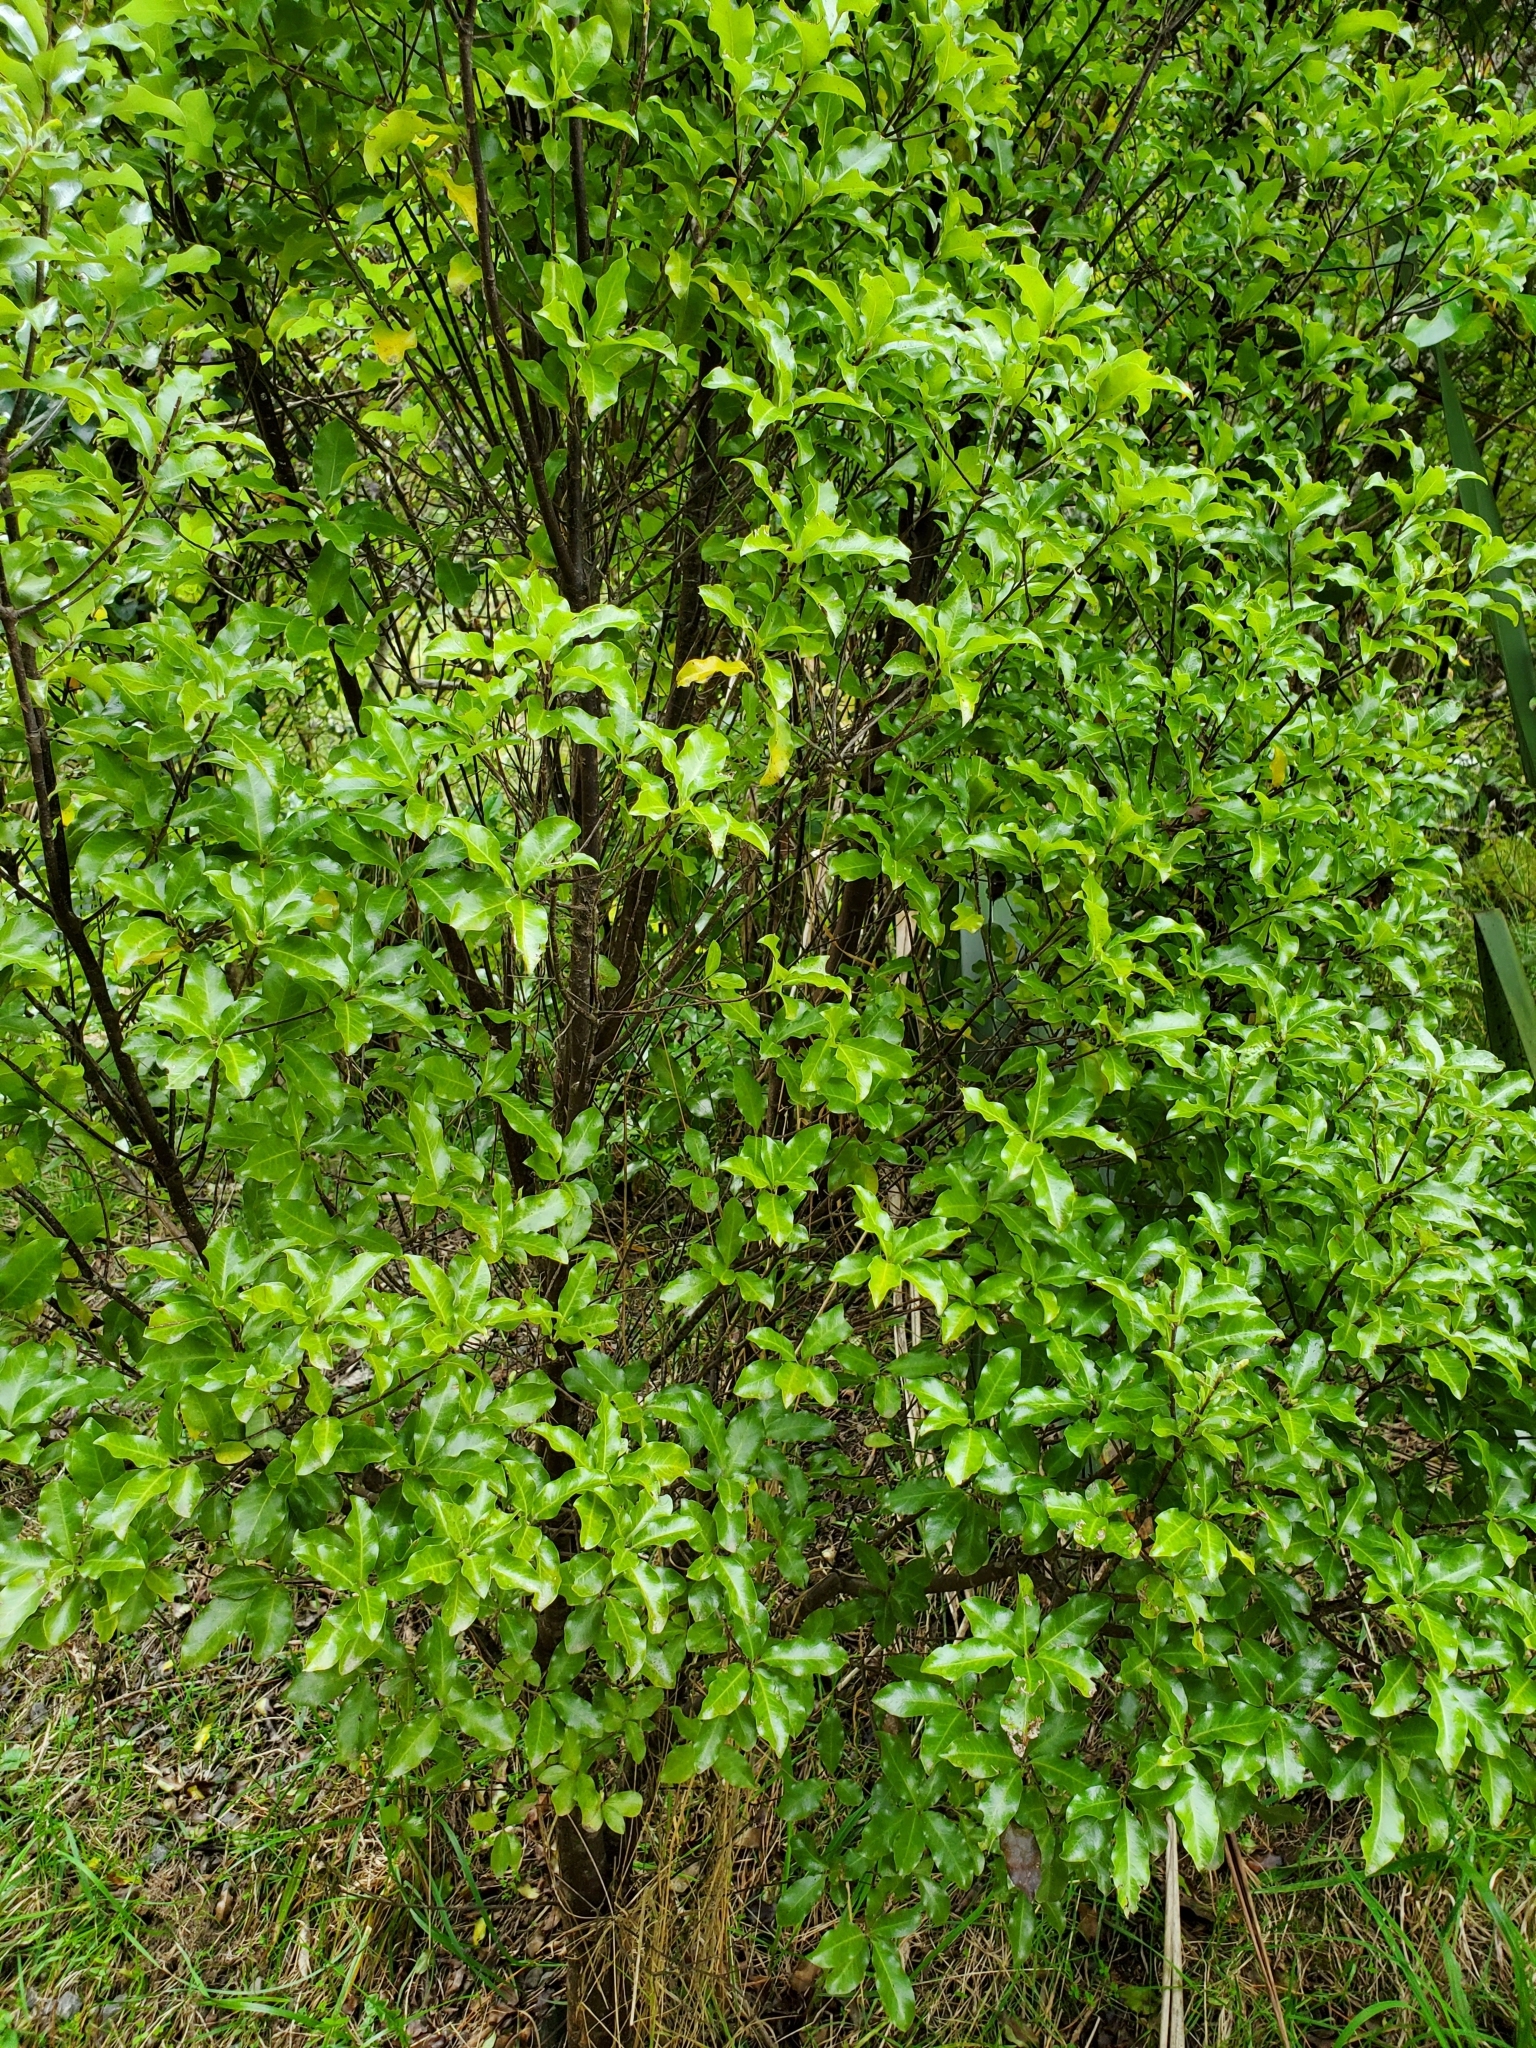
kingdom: Plantae
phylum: Tracheophyta
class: Magnoliopsida
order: Apiales
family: Pittosporaceae
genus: Pittosporum
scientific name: Pittosporum tenuifolium
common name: Kohuhu
